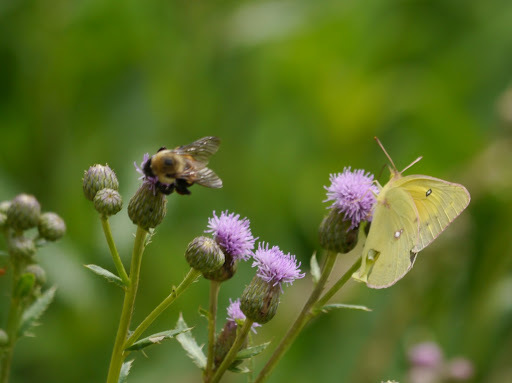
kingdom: Animalia
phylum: Arthropoda
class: Insecta
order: Hymenoptera
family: Apidae
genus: Bombus
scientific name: Bombus griseocollis
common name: Brown-belted bumble bee
